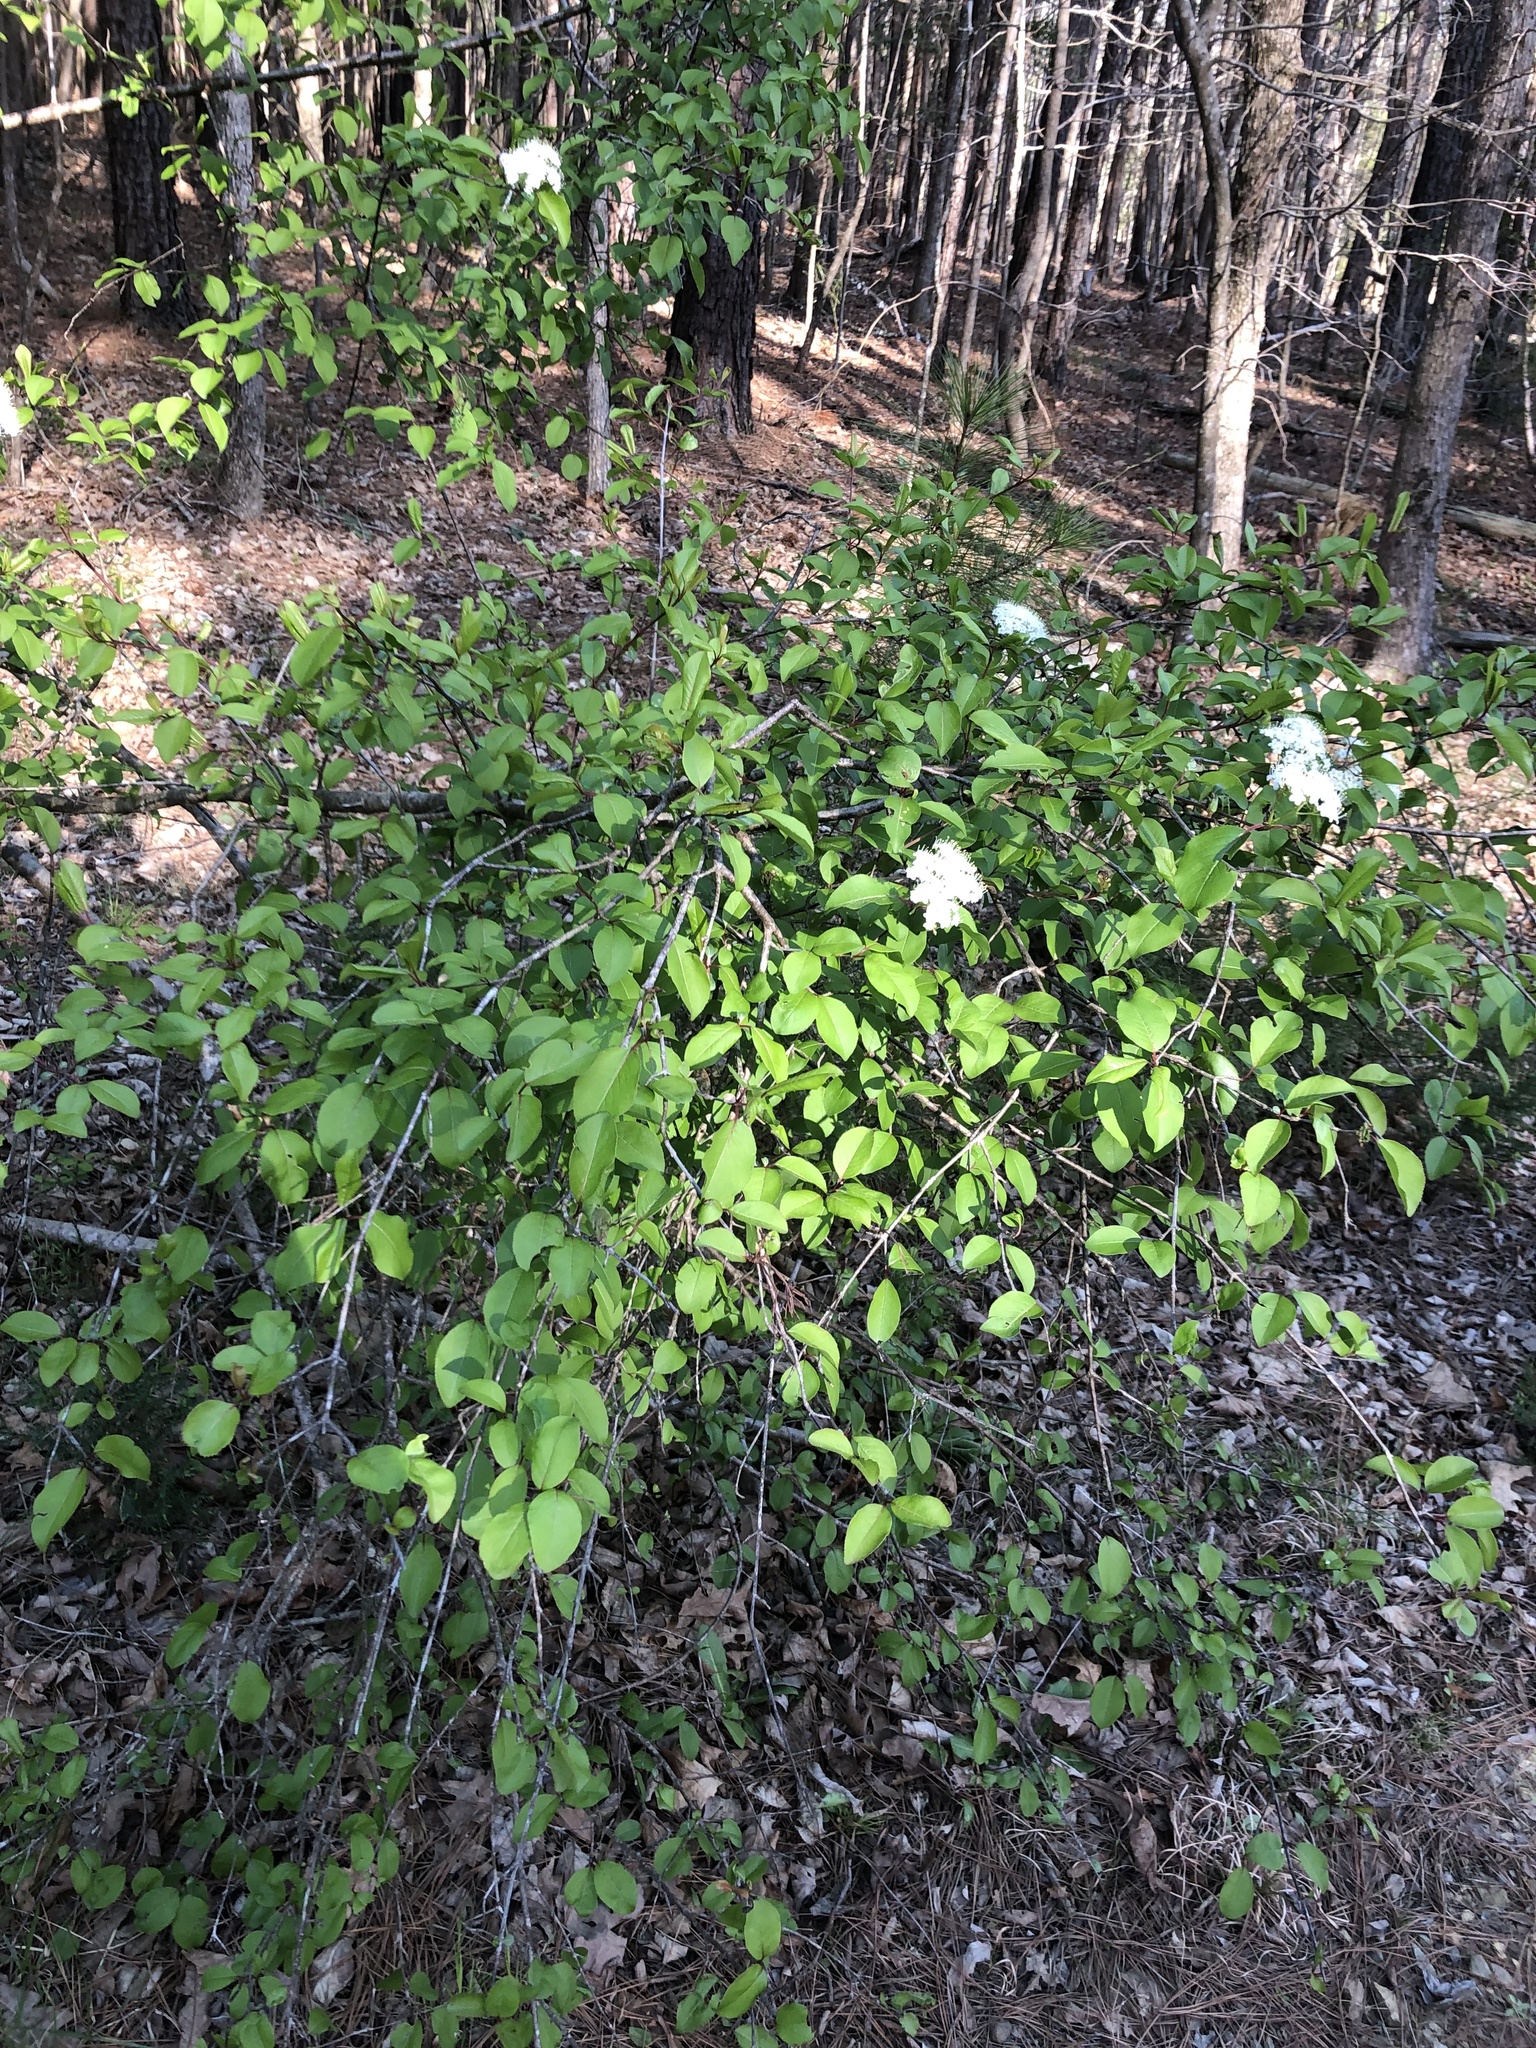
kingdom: Plantae
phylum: Tracheophyta
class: Magnoliopsida
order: Dipsacales
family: Viburnaceae
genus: Viburnum
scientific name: Viburnum prunifolium
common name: Black haw
